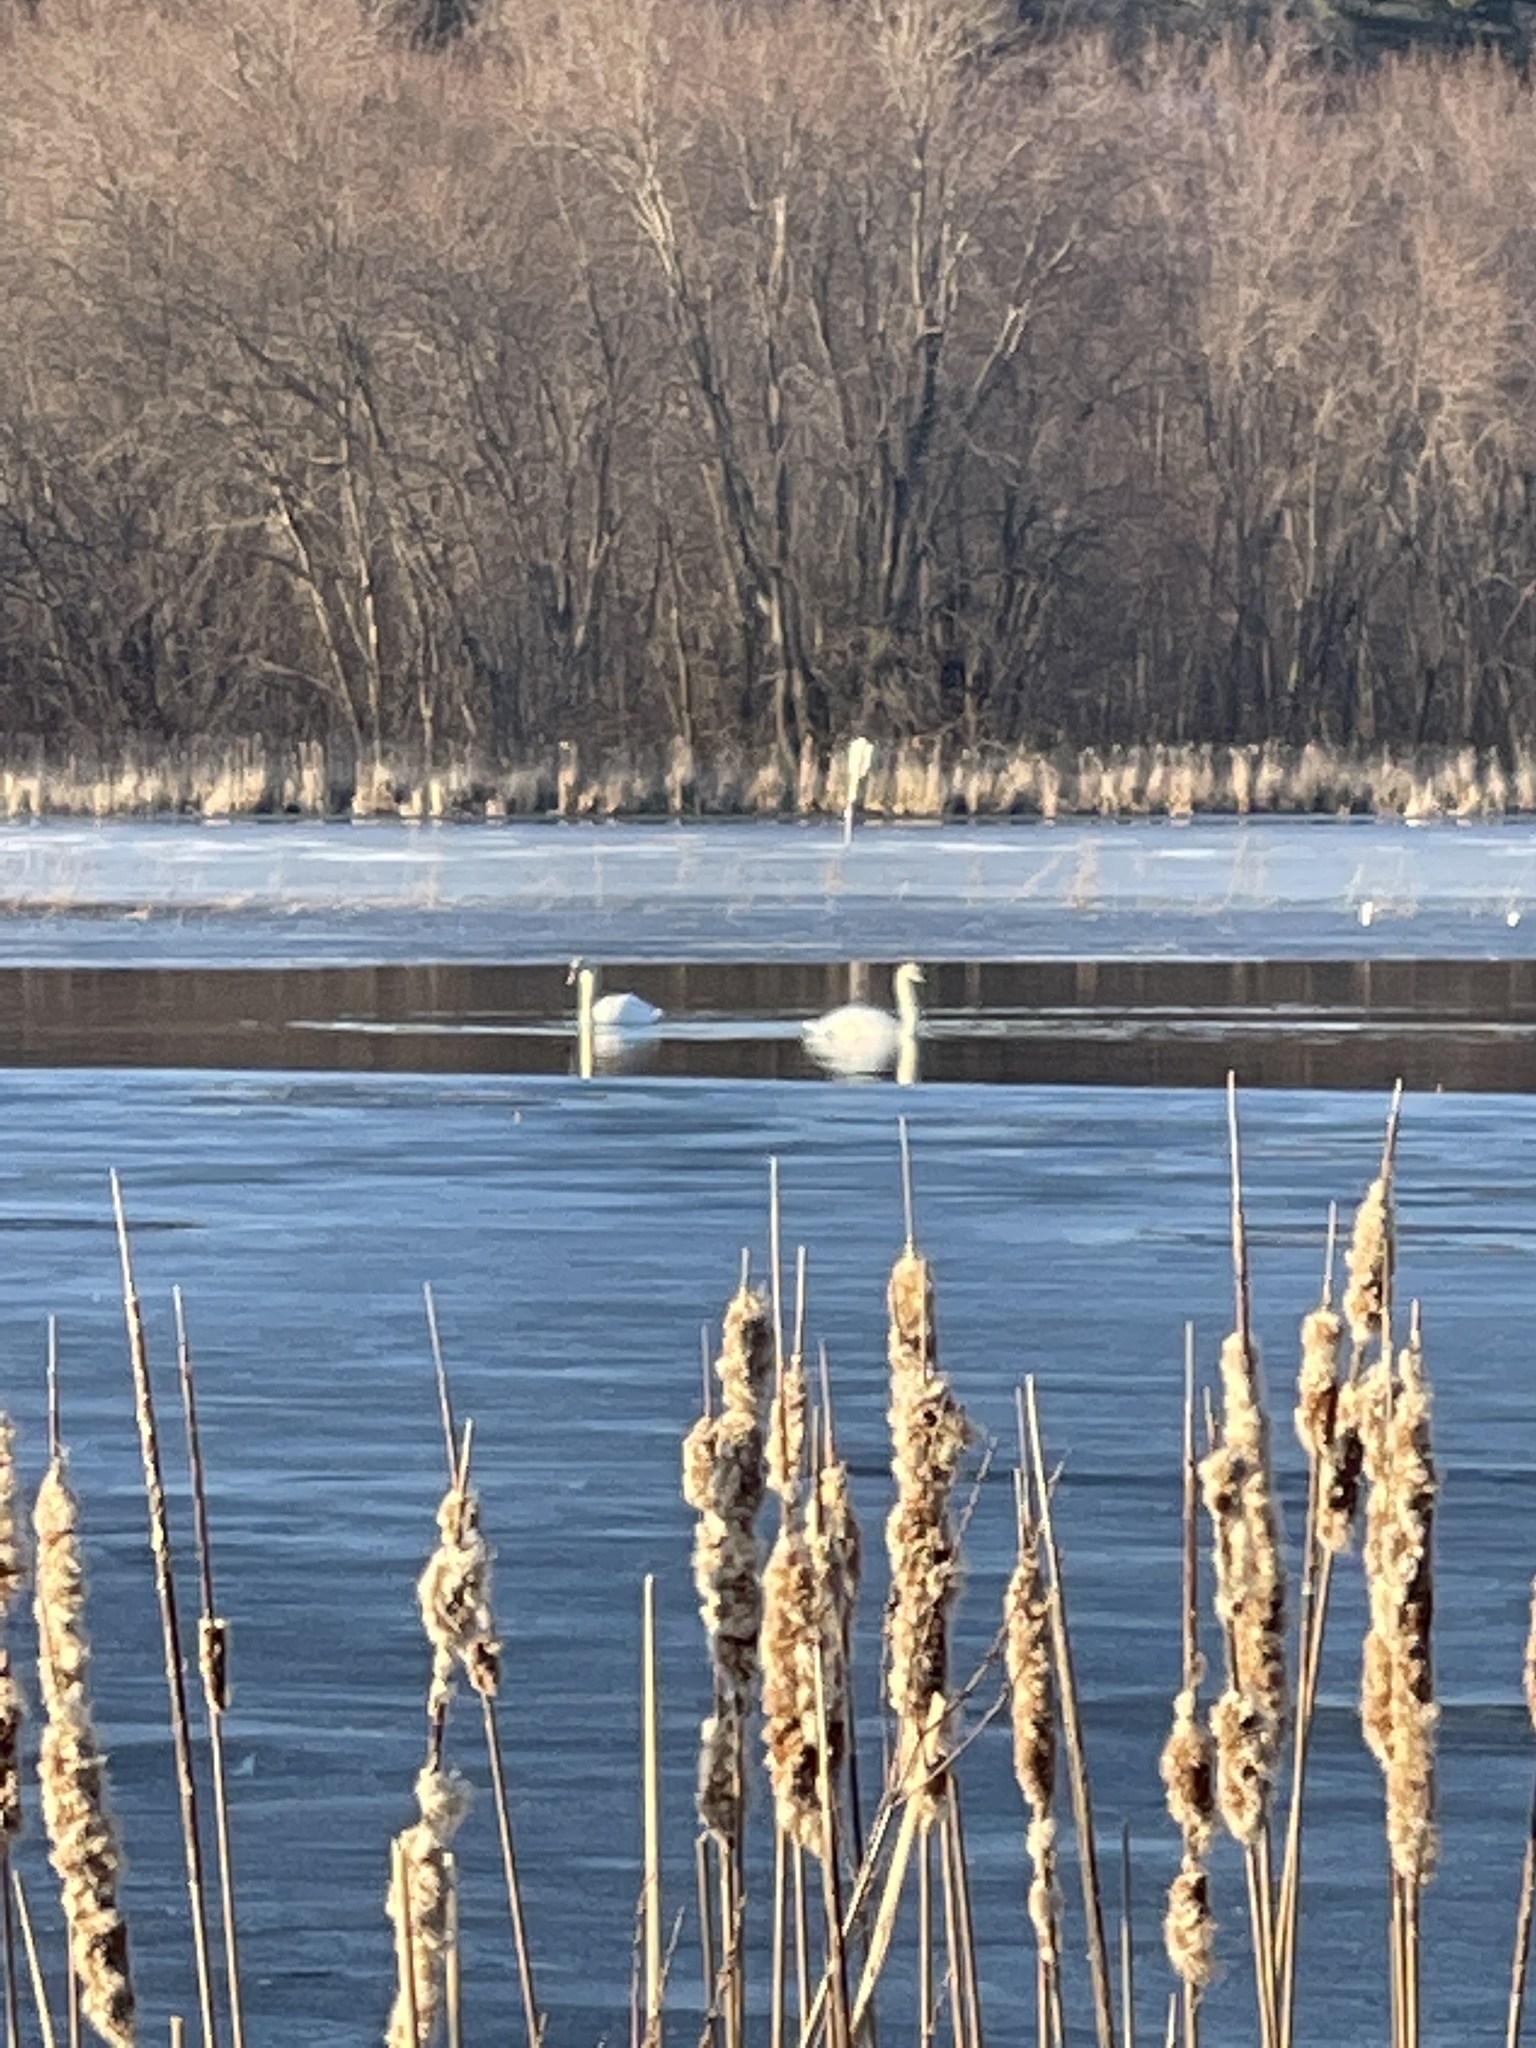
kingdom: Animalia
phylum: Chordata
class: Aves
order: Anseriformes
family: Anatidae
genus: Cygnus
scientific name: Cygnus olor
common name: Mute swan
